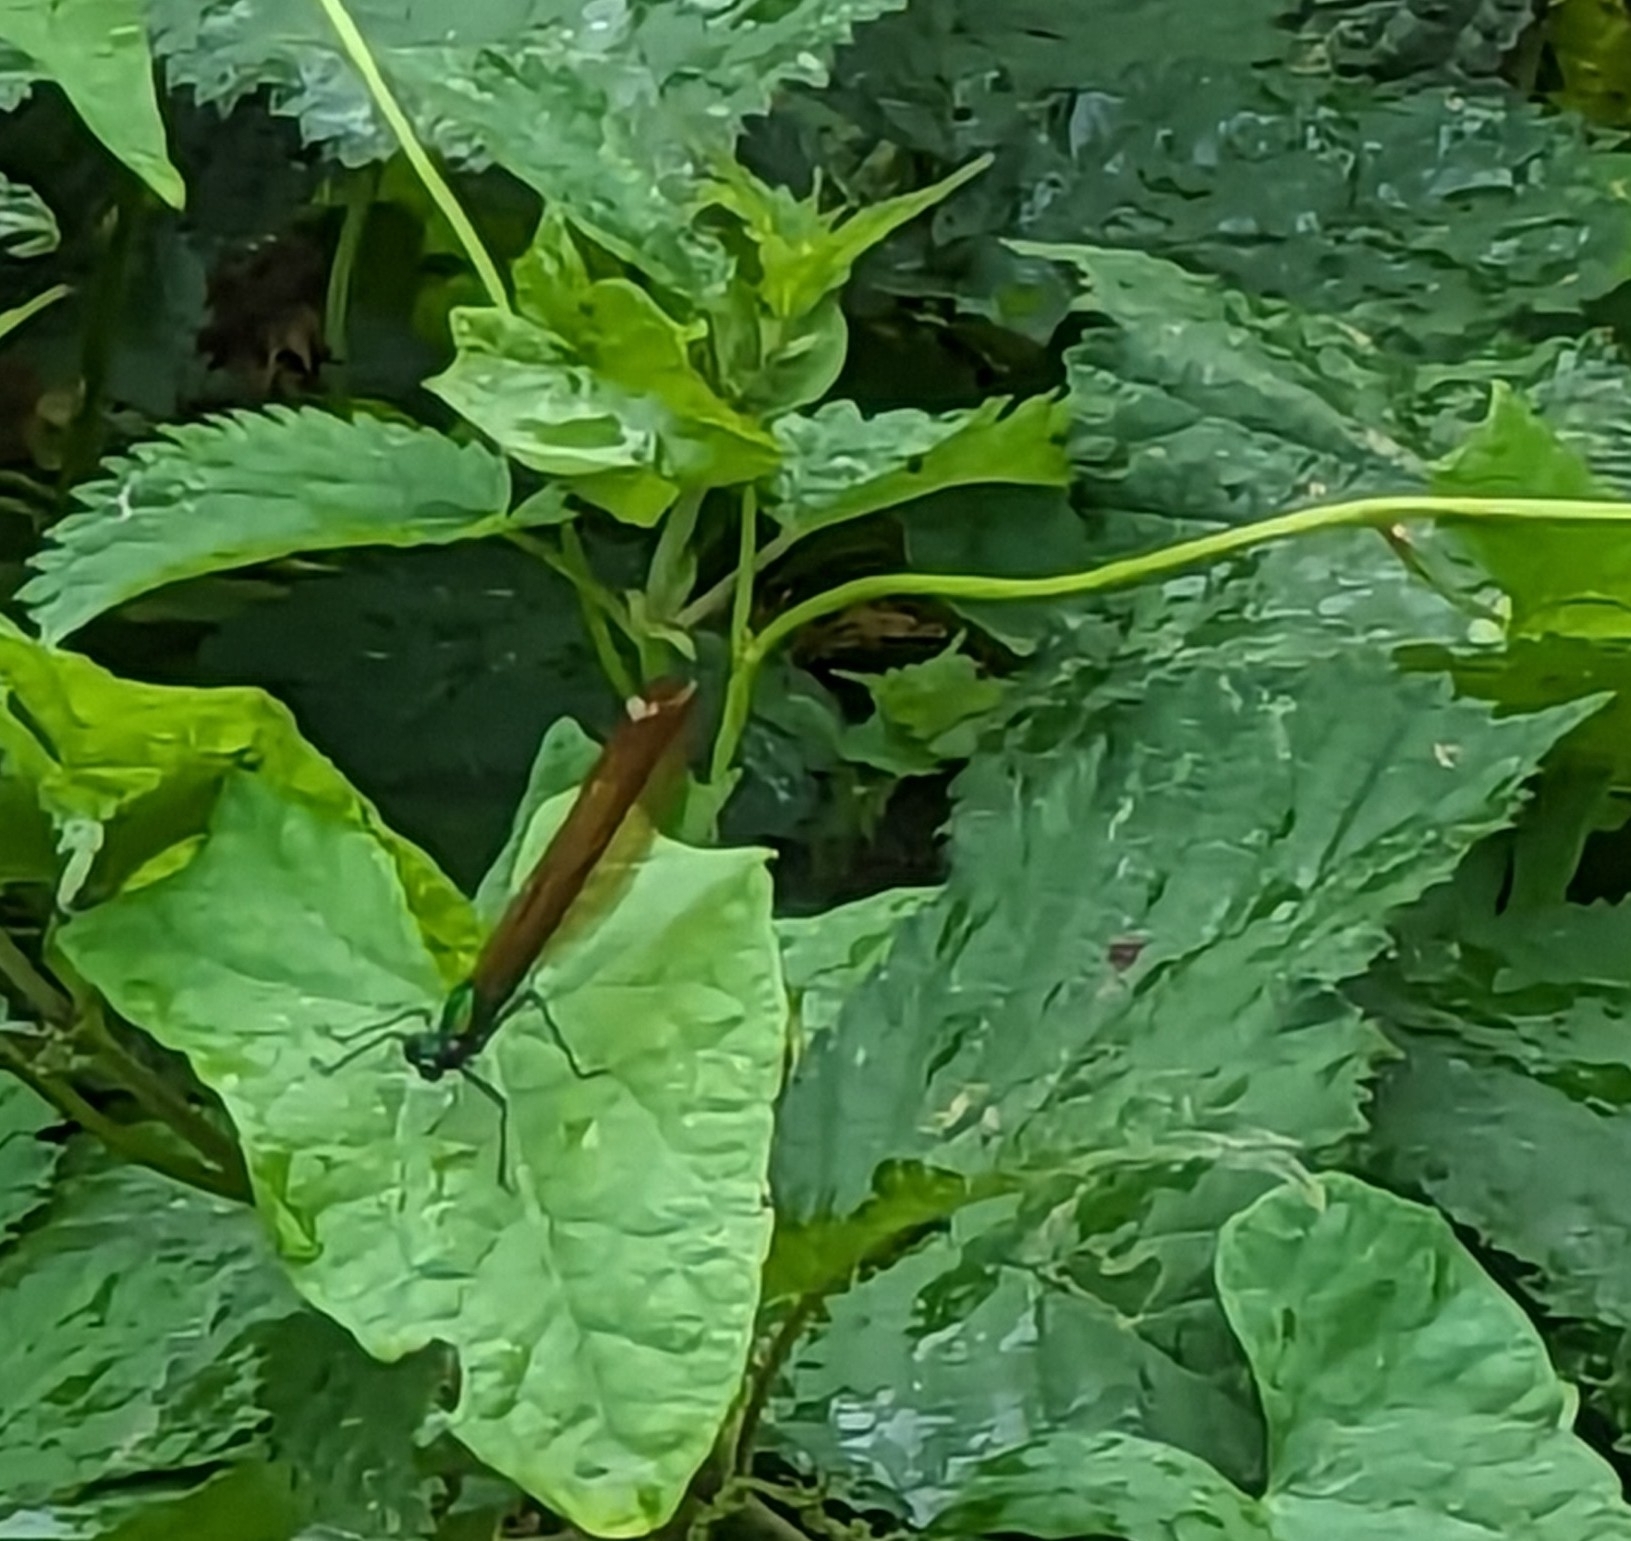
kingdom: Animalia
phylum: Arthropoda
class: Insecta
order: Odonata
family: Calopterygidae
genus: Calopteryx
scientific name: Calopteryx virgo
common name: Beautiful demoiselle
